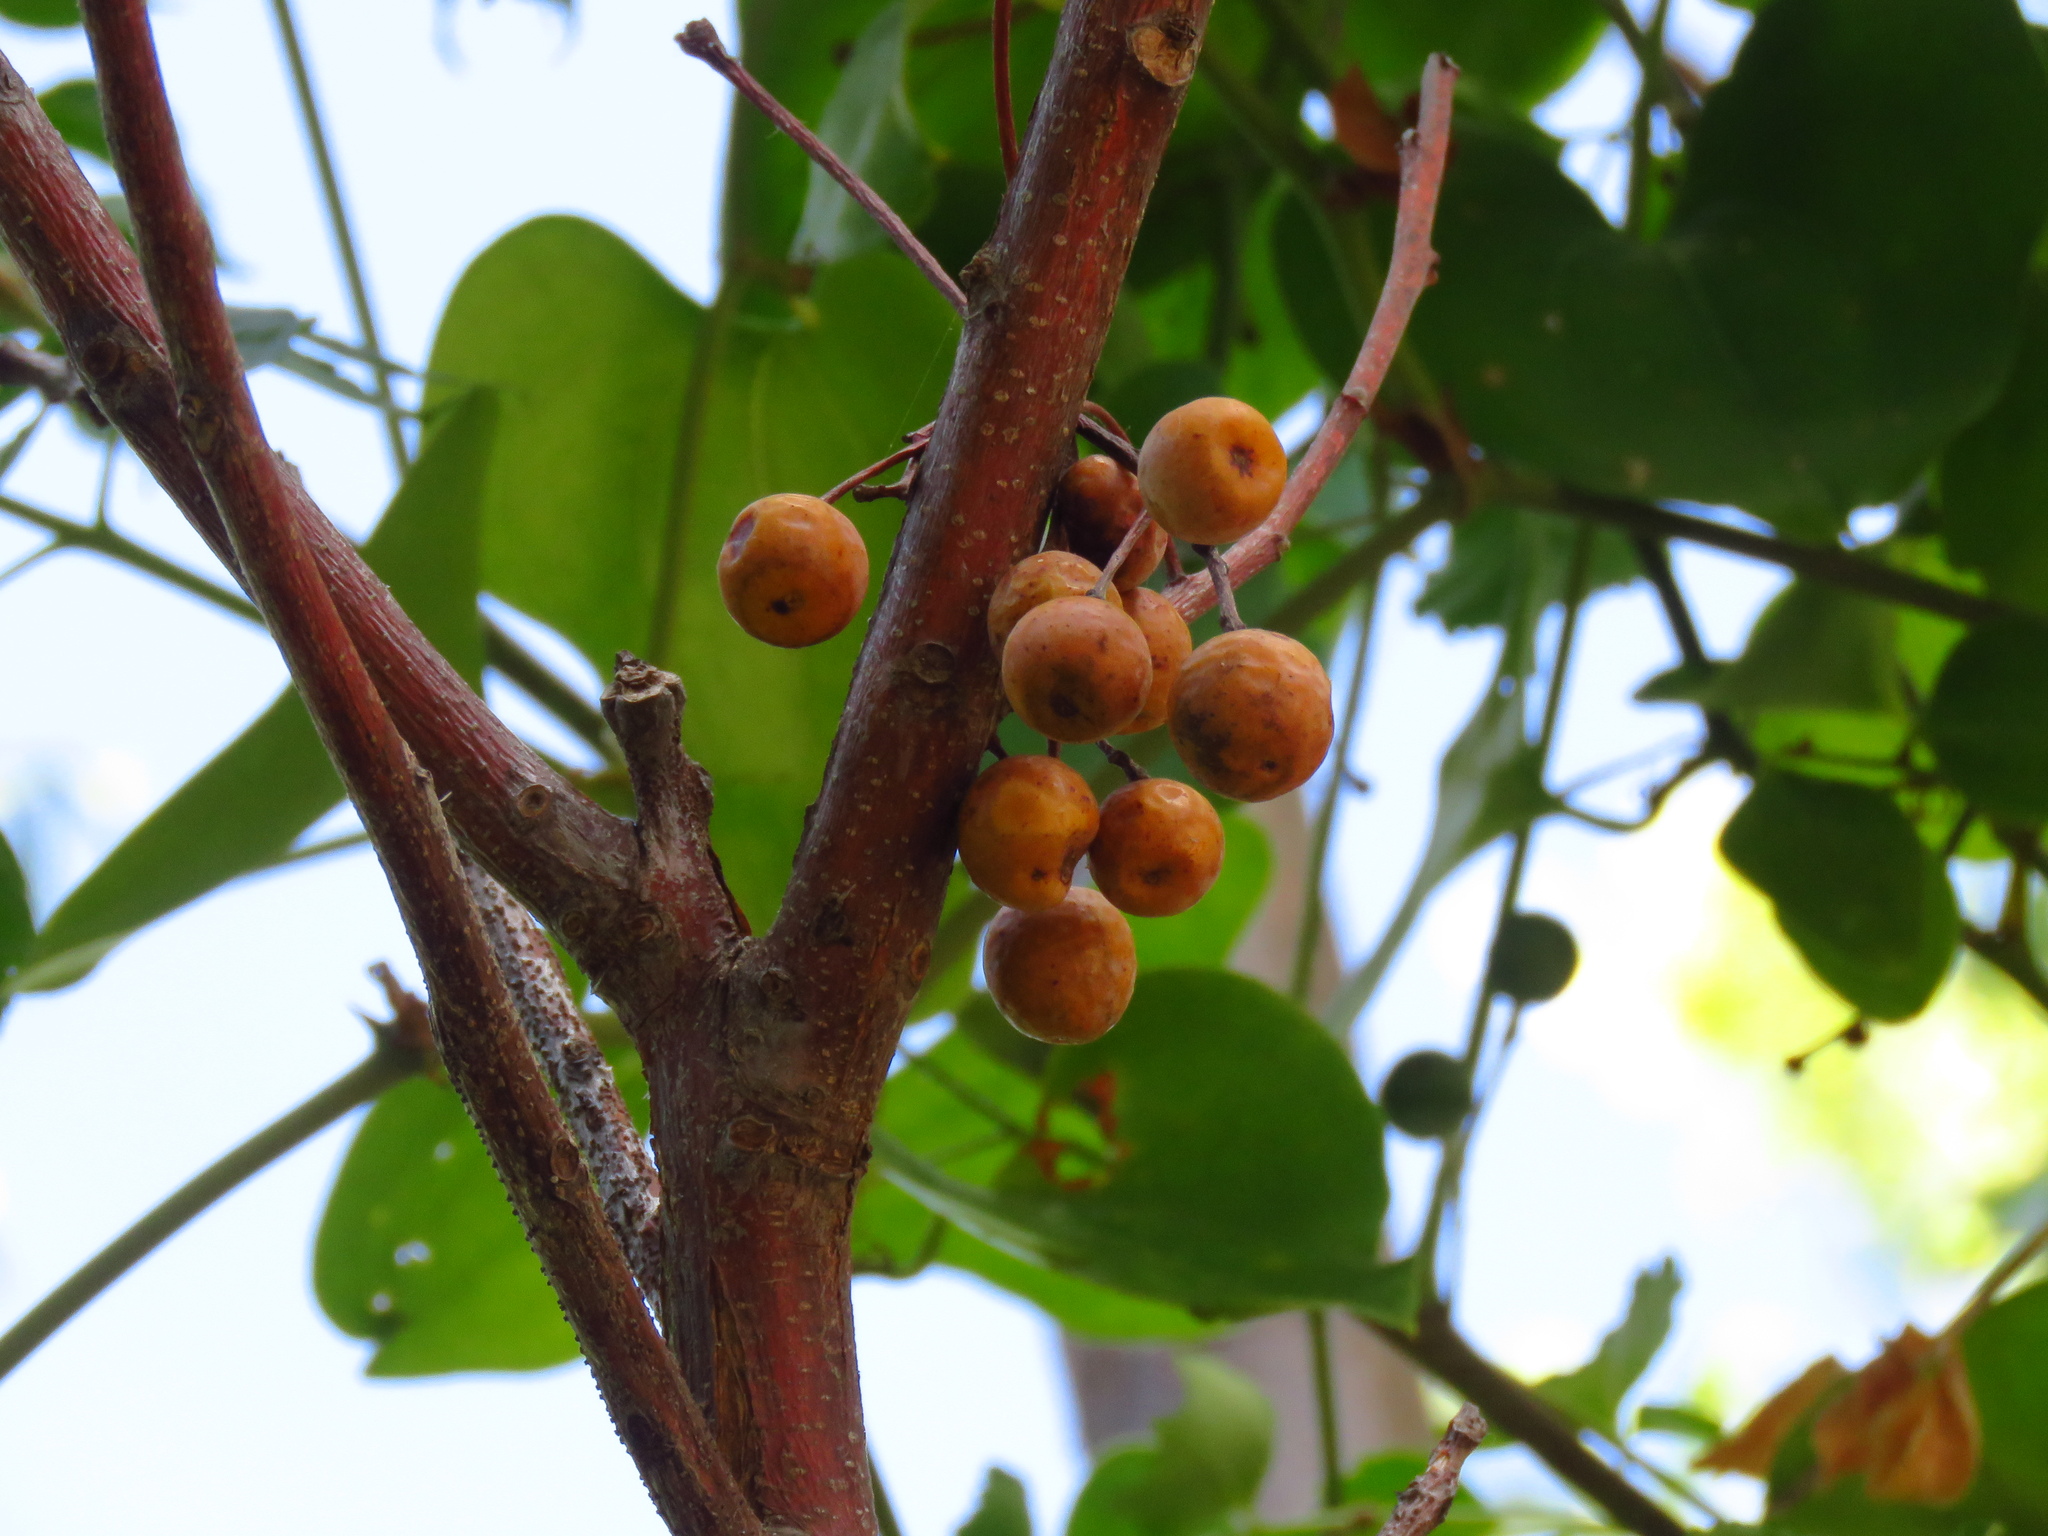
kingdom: Plantae
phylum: Tracheophyta
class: Magnoliopsida
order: Sapindales
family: Meliaceae
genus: Melia
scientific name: Melia azedarach
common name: Chinaberrytree
